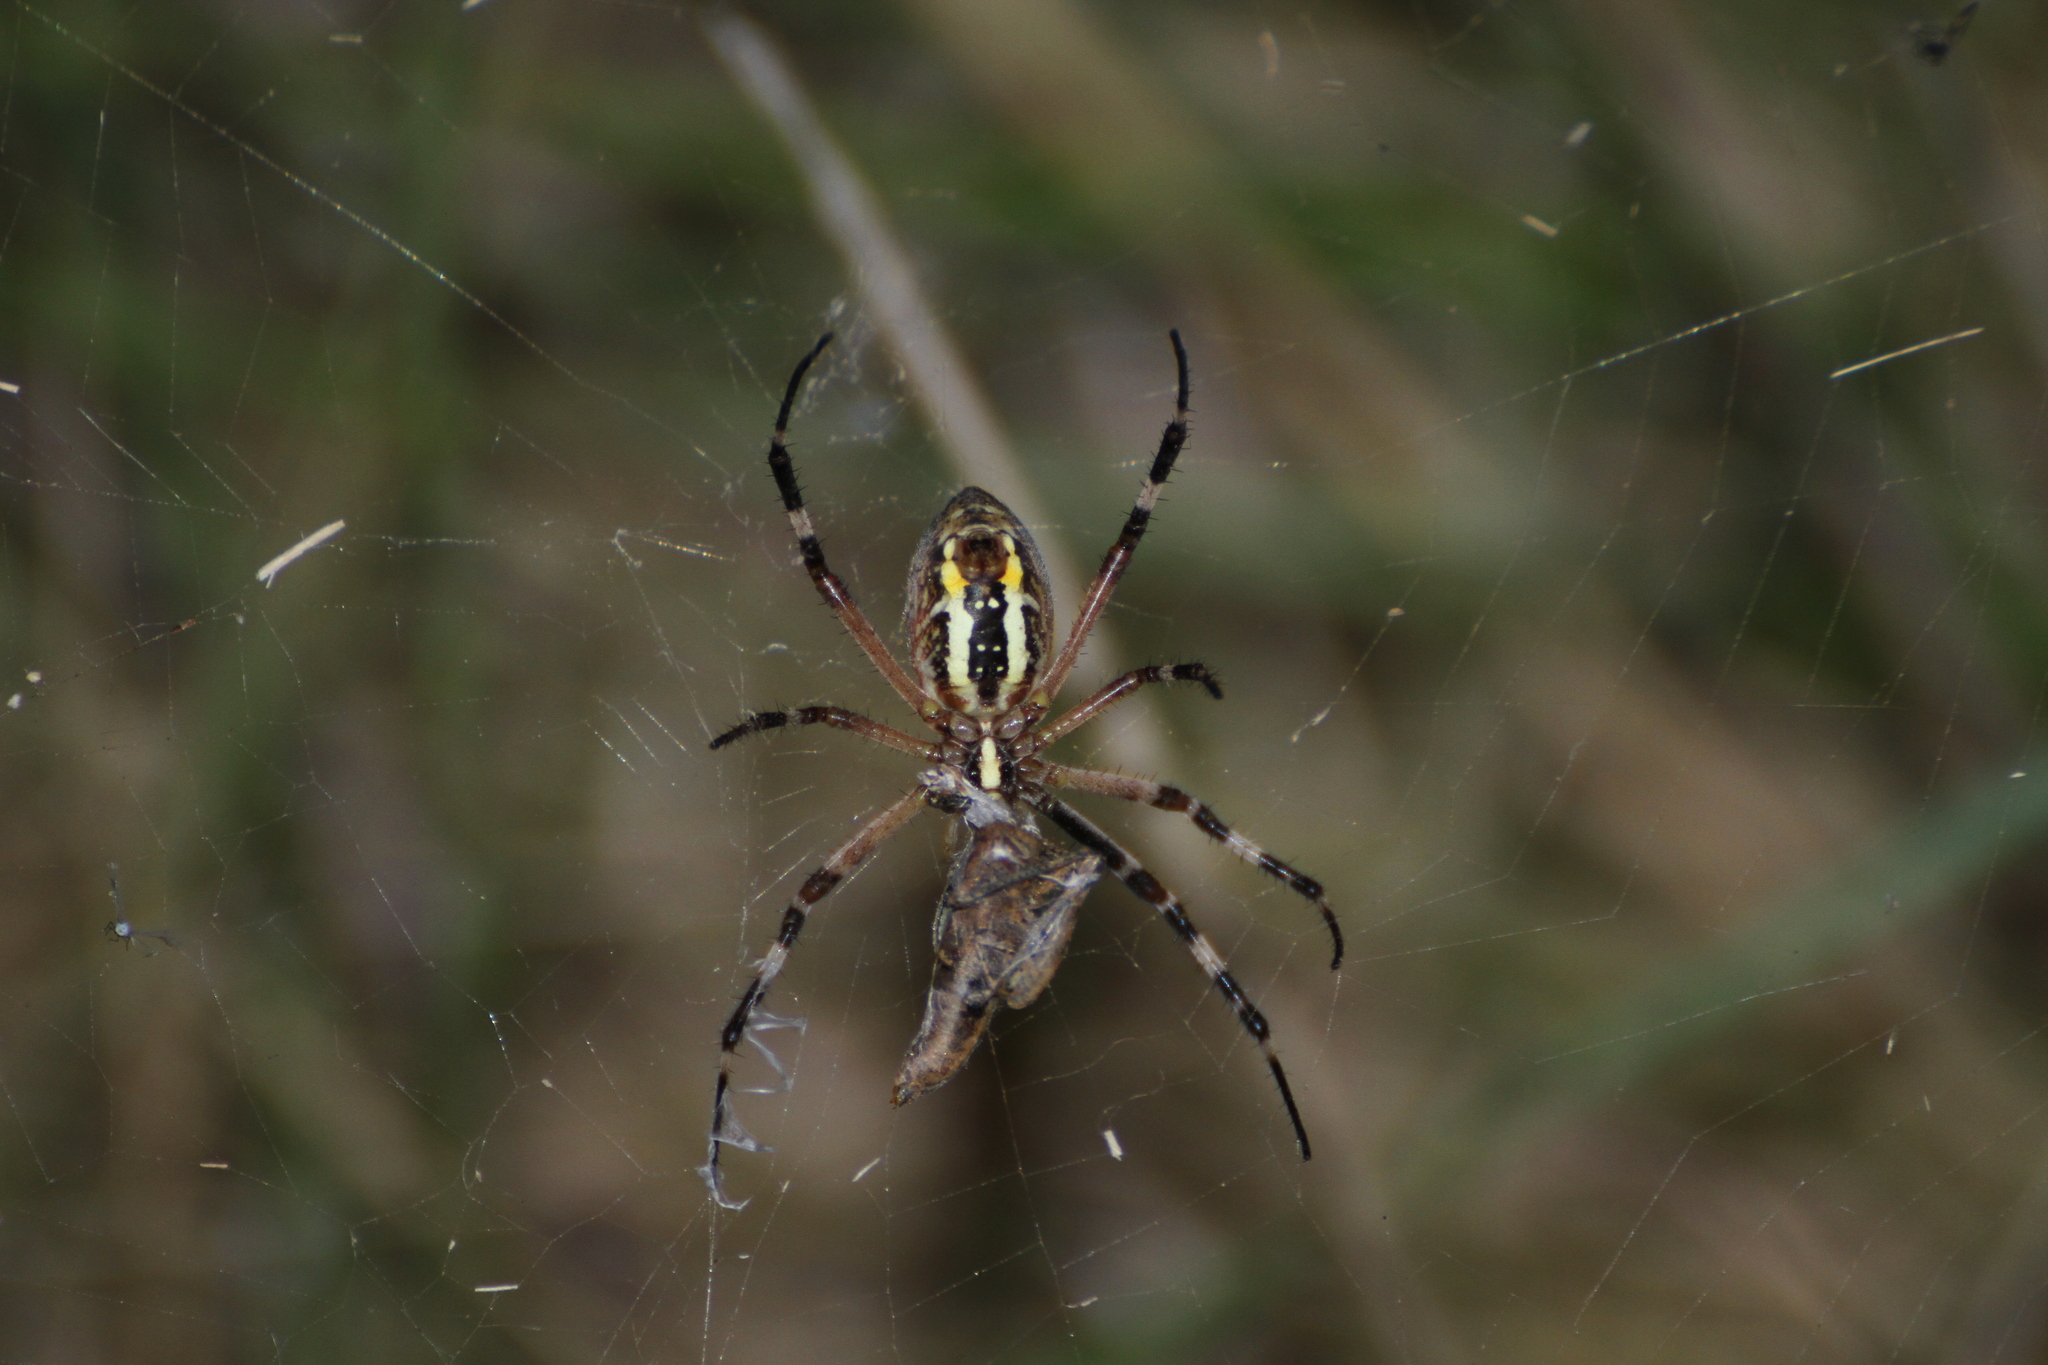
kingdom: Animalia
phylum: Arthropoda
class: Arachnida
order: Araneae
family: Araneidae
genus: Argiope
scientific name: Argiope bruennichi
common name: Wasp spider
